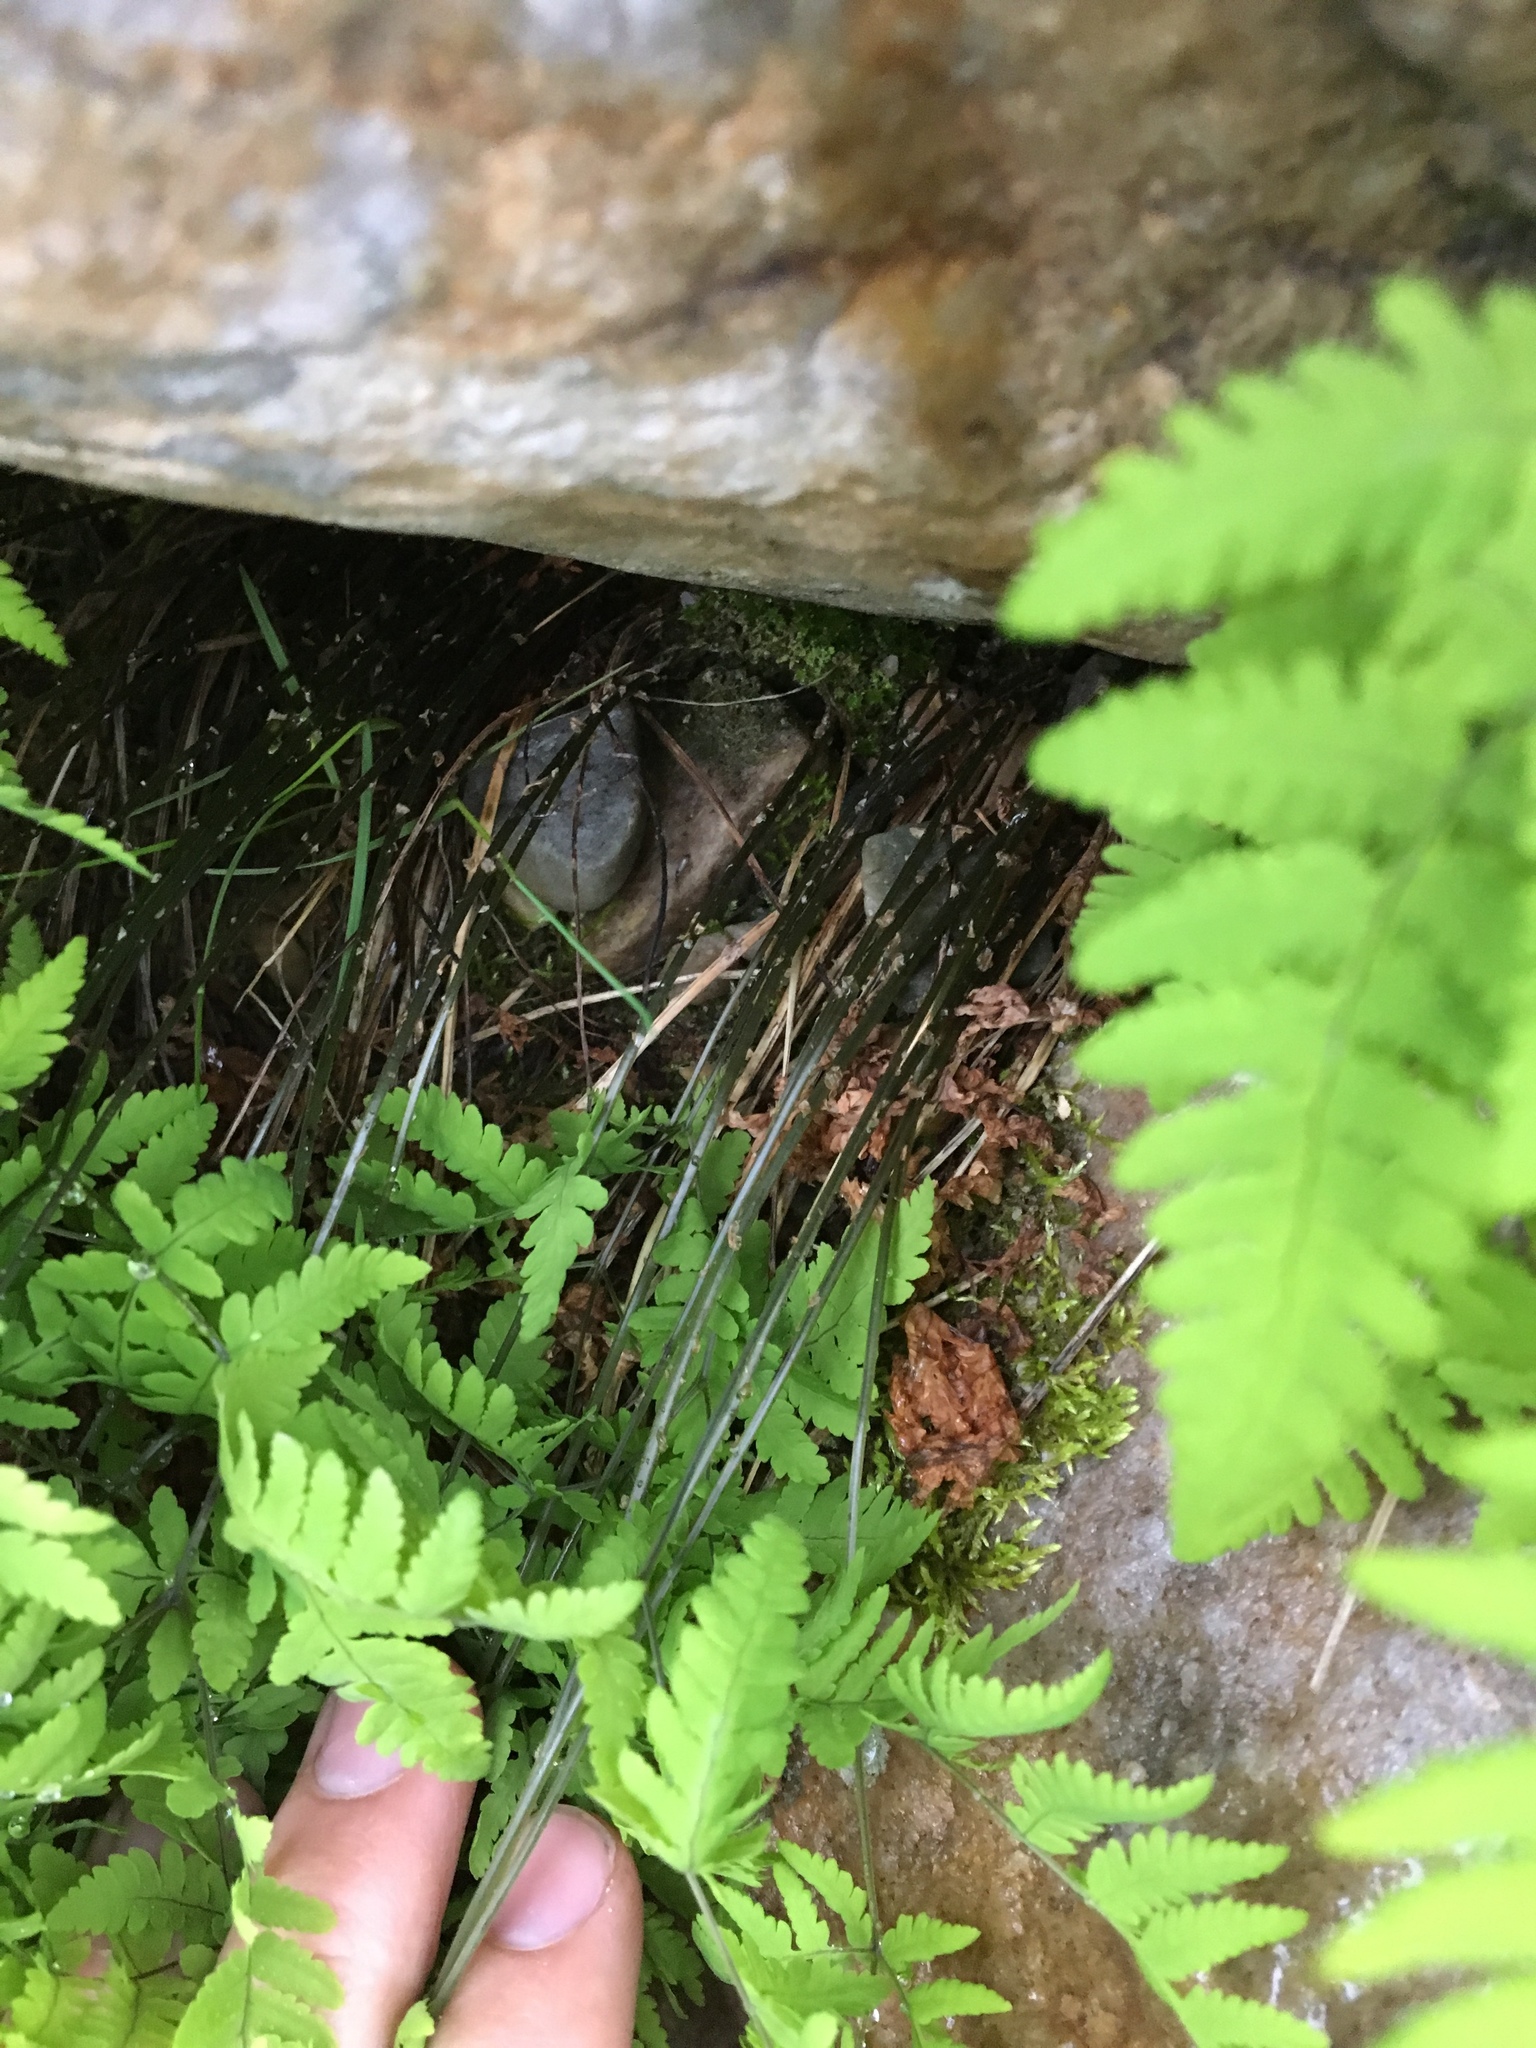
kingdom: Plantae
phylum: Tracheophyta
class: Polypodiopsida
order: Polypodiales
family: Cystopteridaceae
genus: Gymnocarpium
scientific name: Gymnocarpium dryopteris
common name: Oak fern
